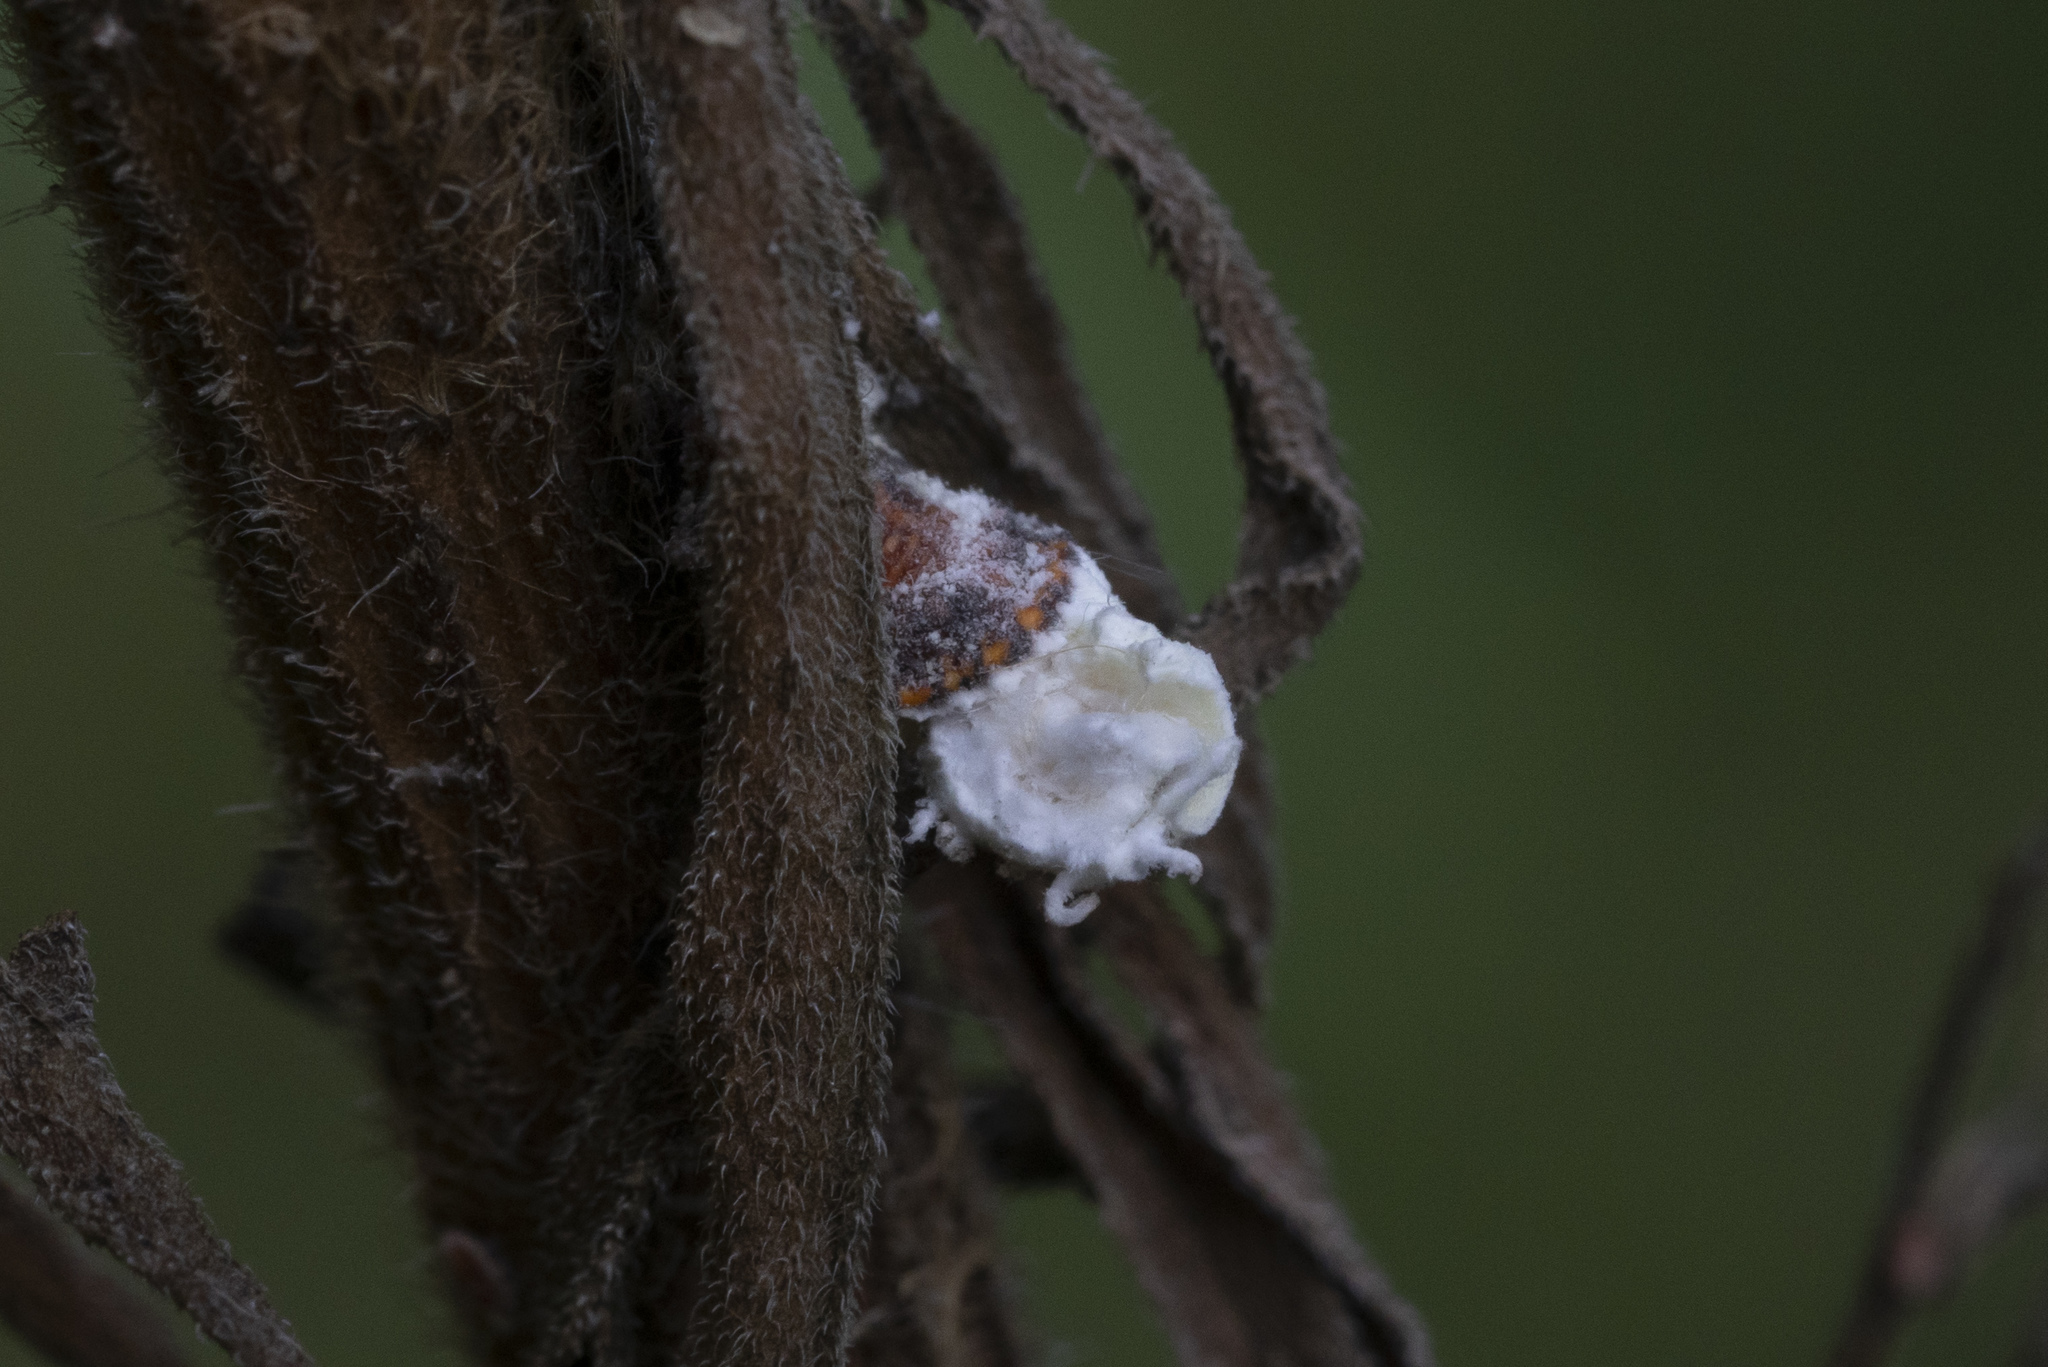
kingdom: Animalia
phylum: Arthropoda
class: Insecta
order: Hemiptera
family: Margarodidae
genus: Icerya
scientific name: Icerya purchasi
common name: Cottony cushion scale
